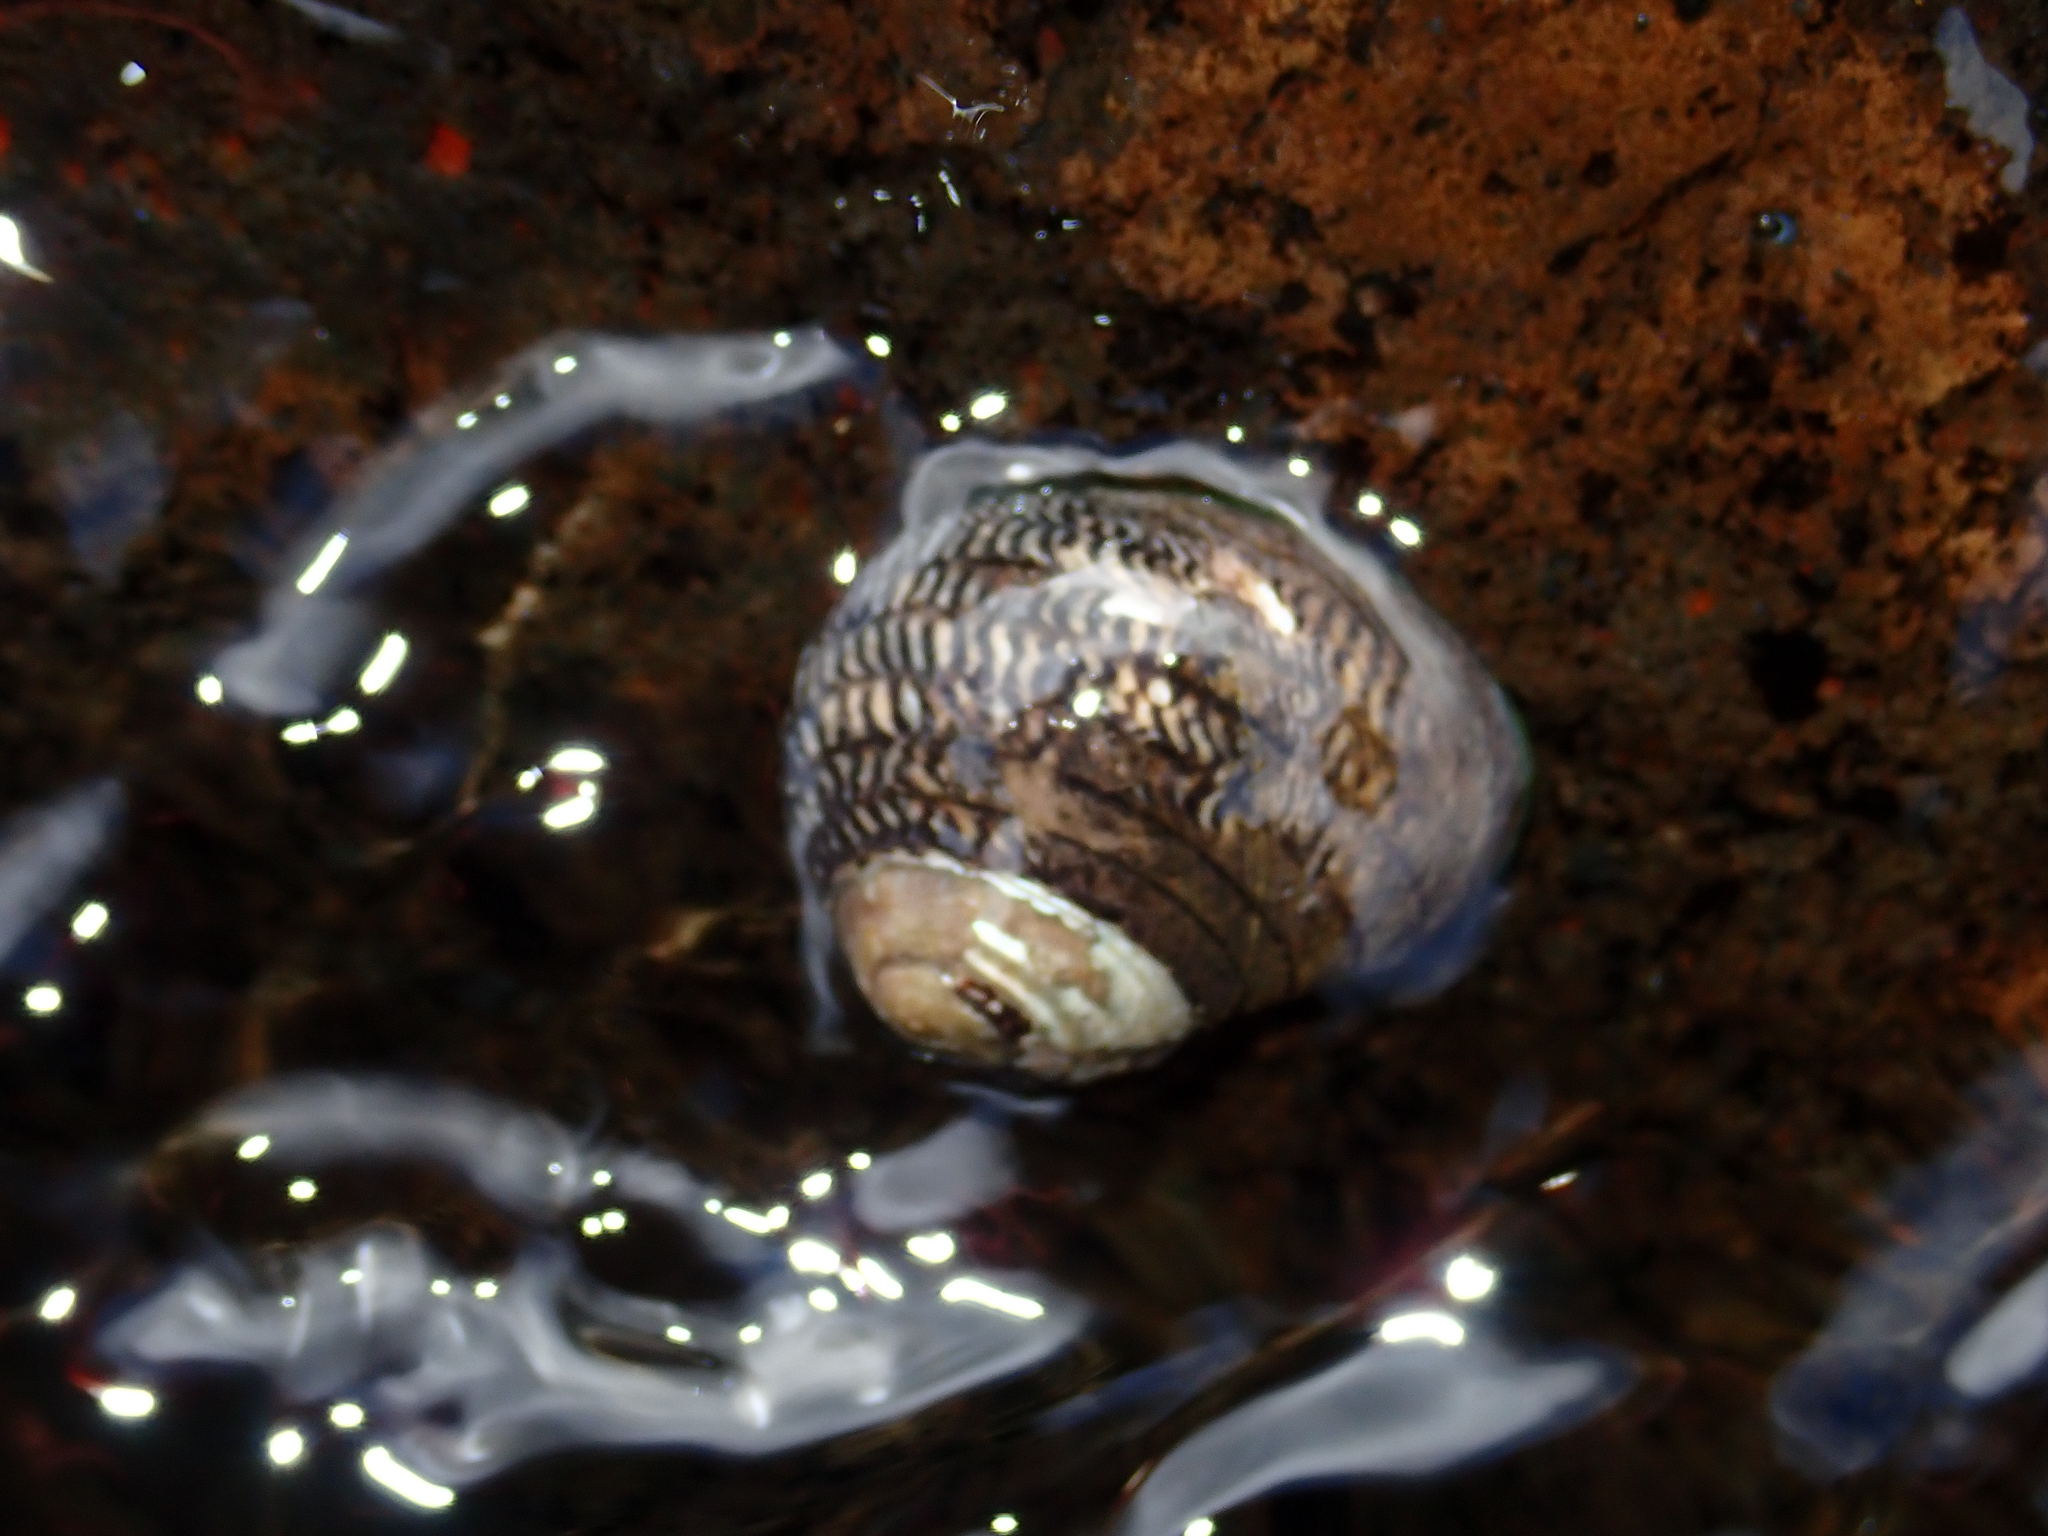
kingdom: Animalia
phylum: Mollusca
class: Gastropoda
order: Trochida
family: Trochidae
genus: Diloma
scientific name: Diloma aethiops
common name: Scorched monodont
